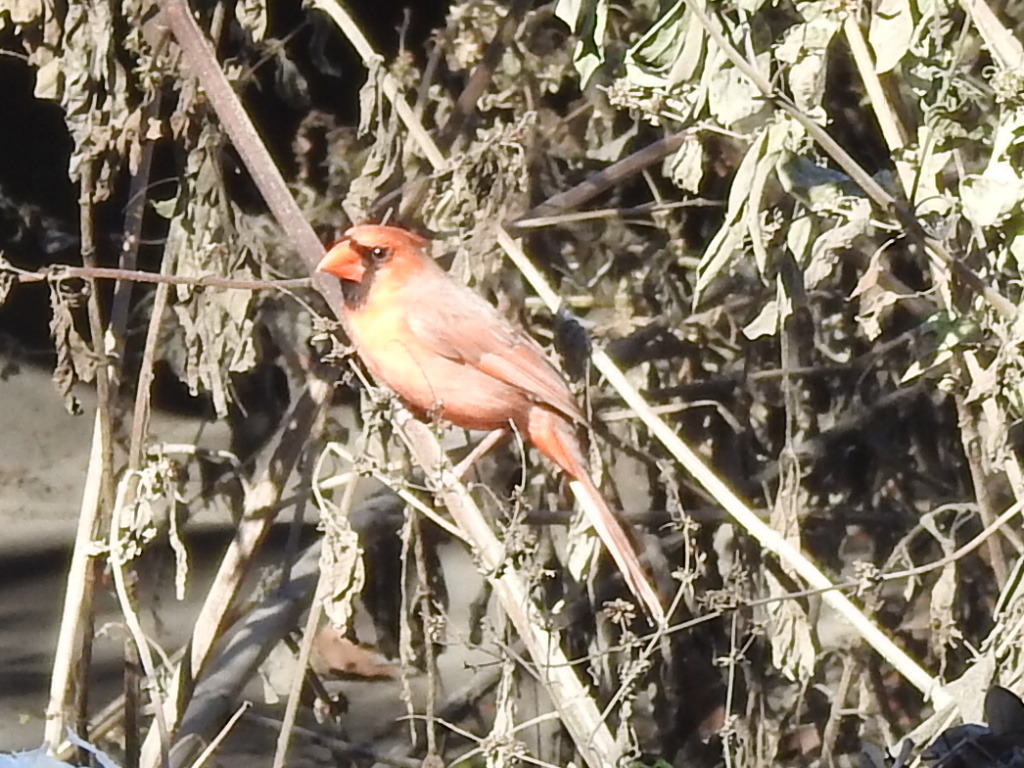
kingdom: Animalia
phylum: Chordata
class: Aves
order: Passeriformes
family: Cardinalidae
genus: Cardinalis
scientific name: Cardinalis cardinalis
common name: Northern cardinal
